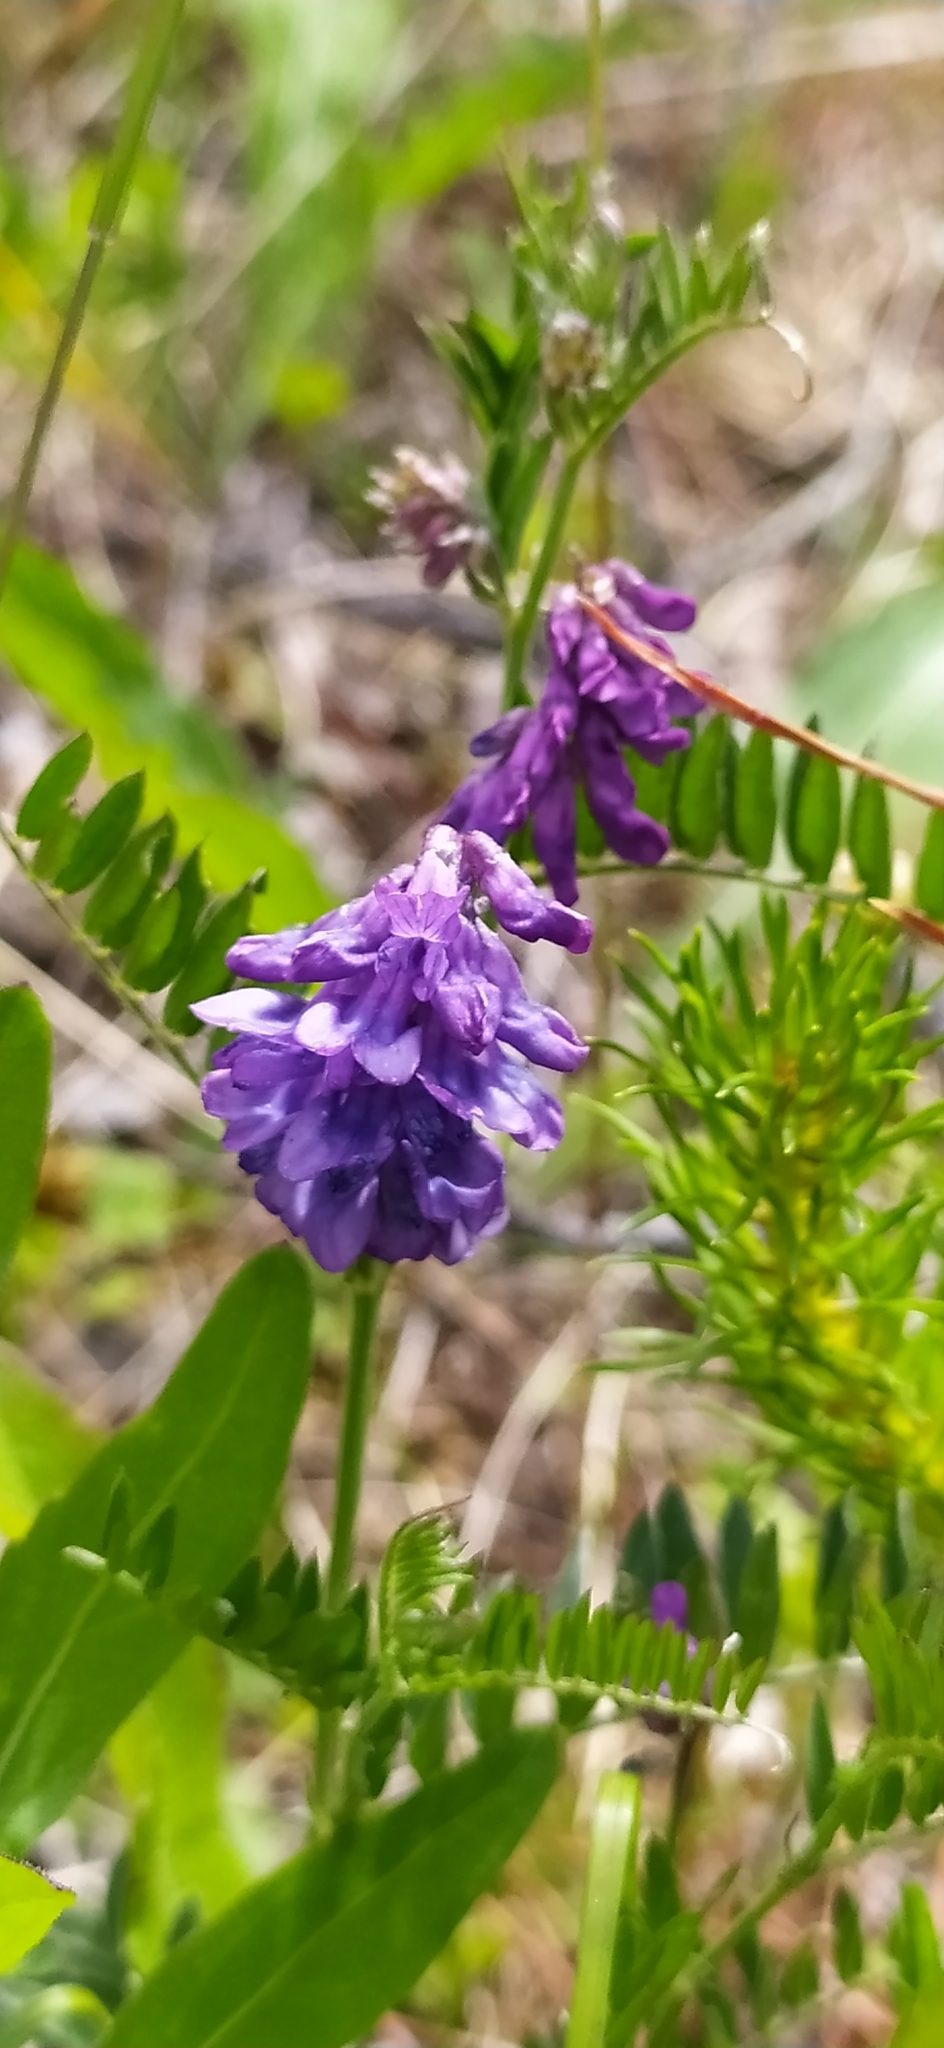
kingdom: Plantae
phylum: Tracheophyta
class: Magnoliopsida
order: Fabales
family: Fabaceae
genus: Vicia
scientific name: Vicia cracca
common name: Bird vetch
